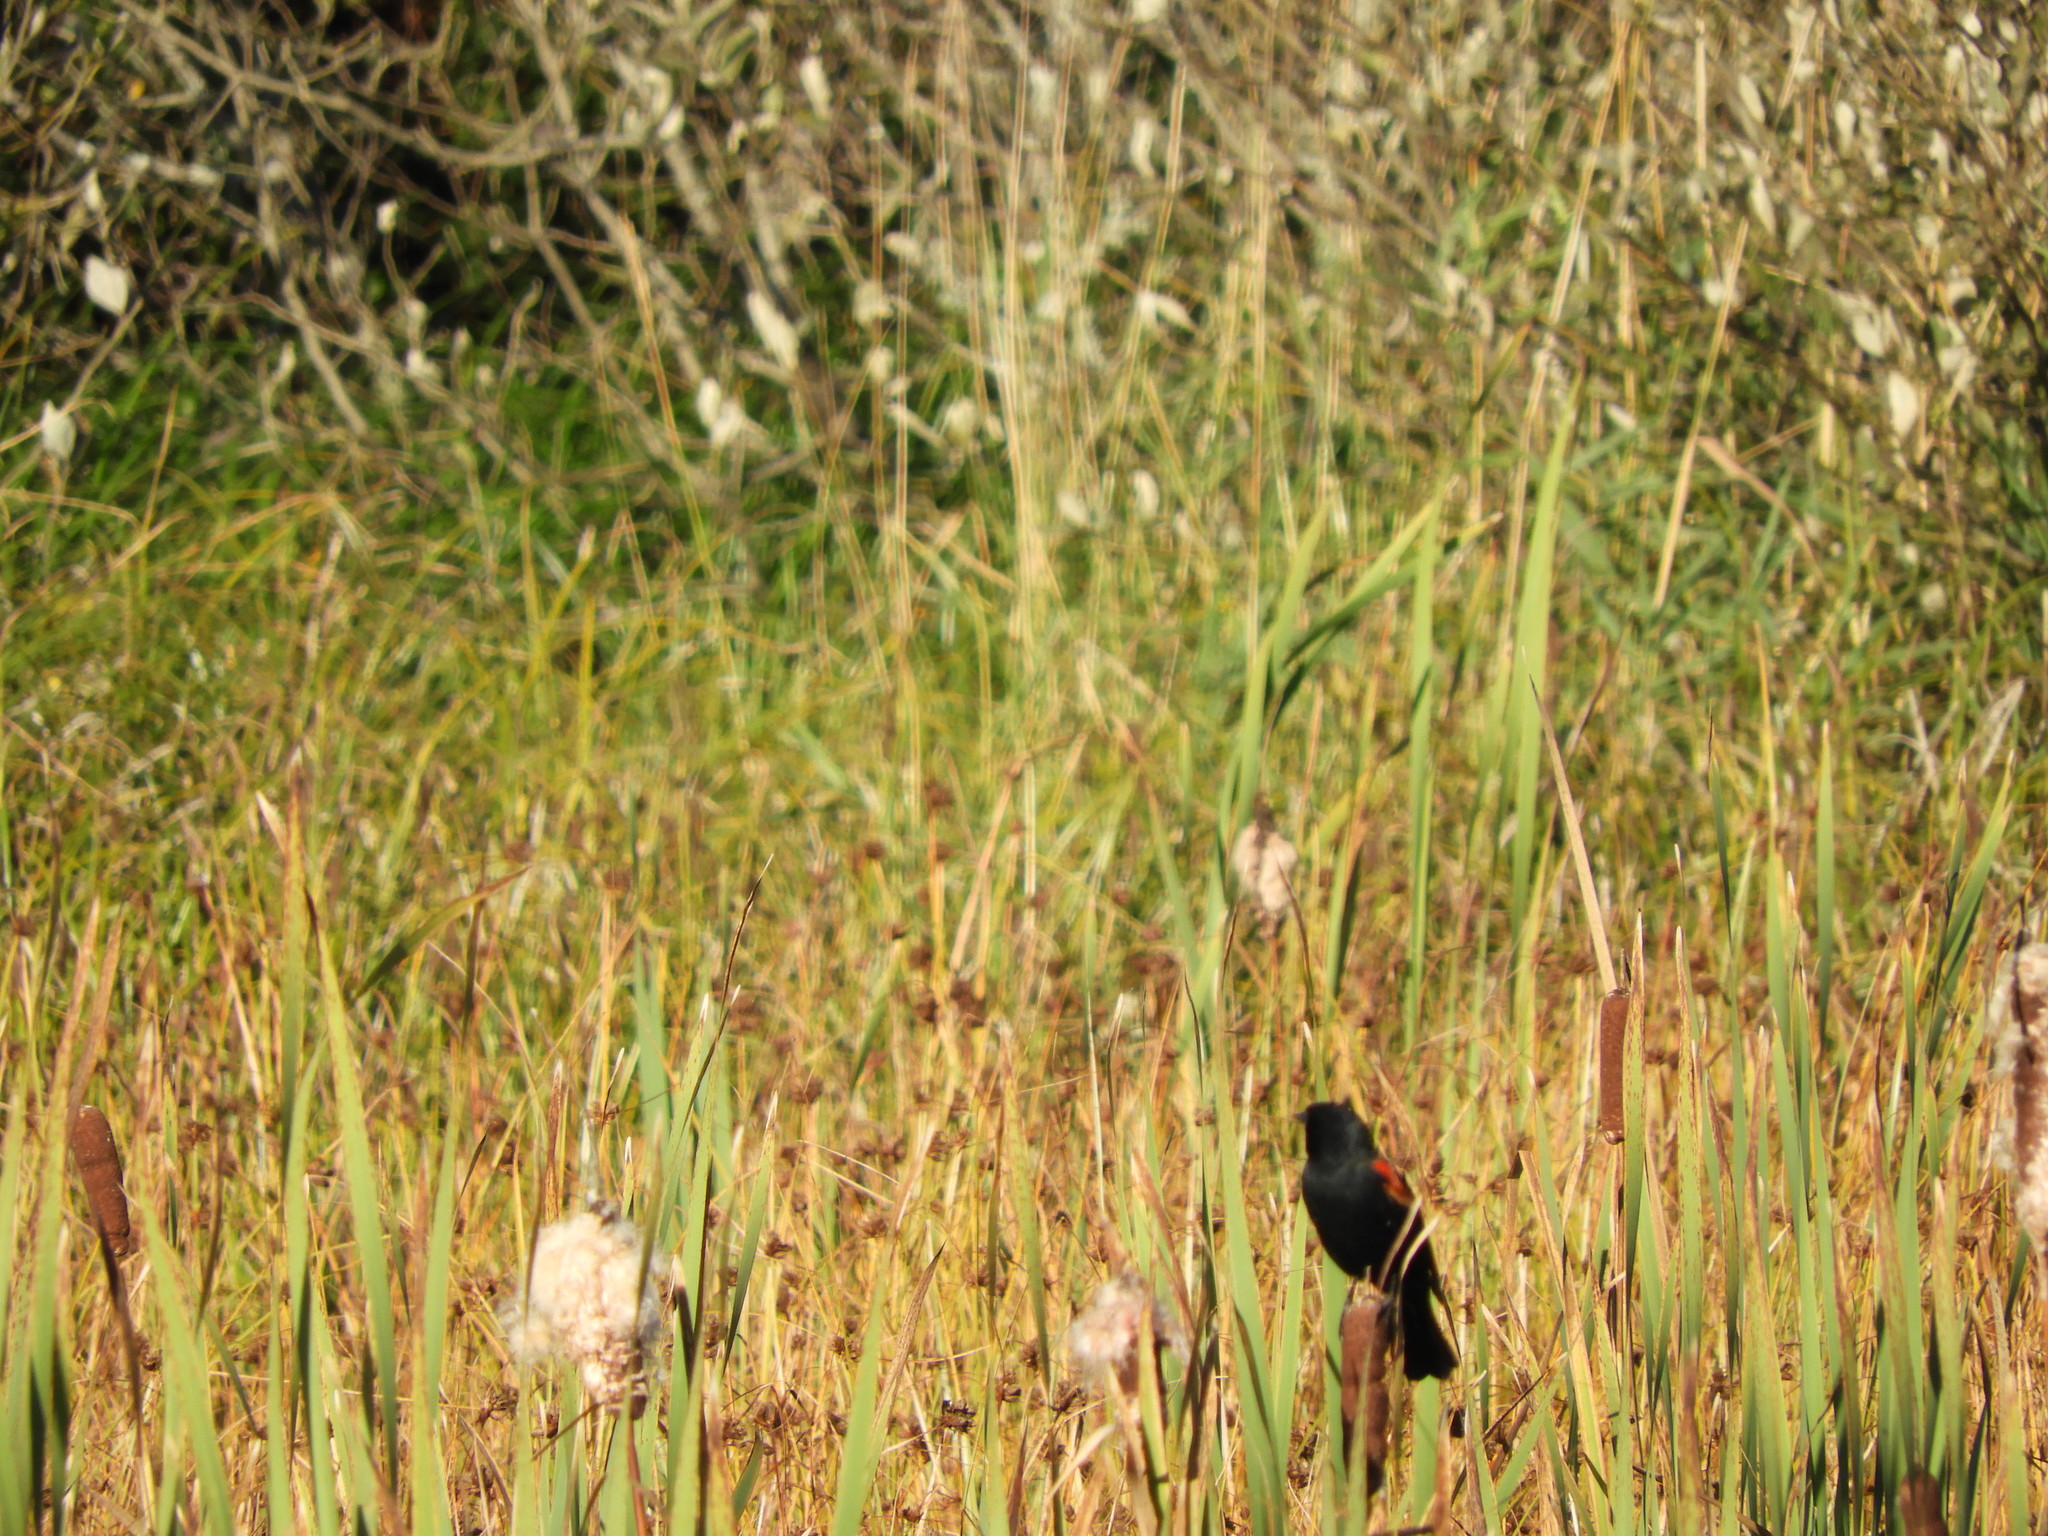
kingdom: Animalia
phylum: Chordata
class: Aves
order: Passeriformes
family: Icteridae
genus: Agelaius
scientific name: Agelaius phoeniceus
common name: Red-winged blackbird
